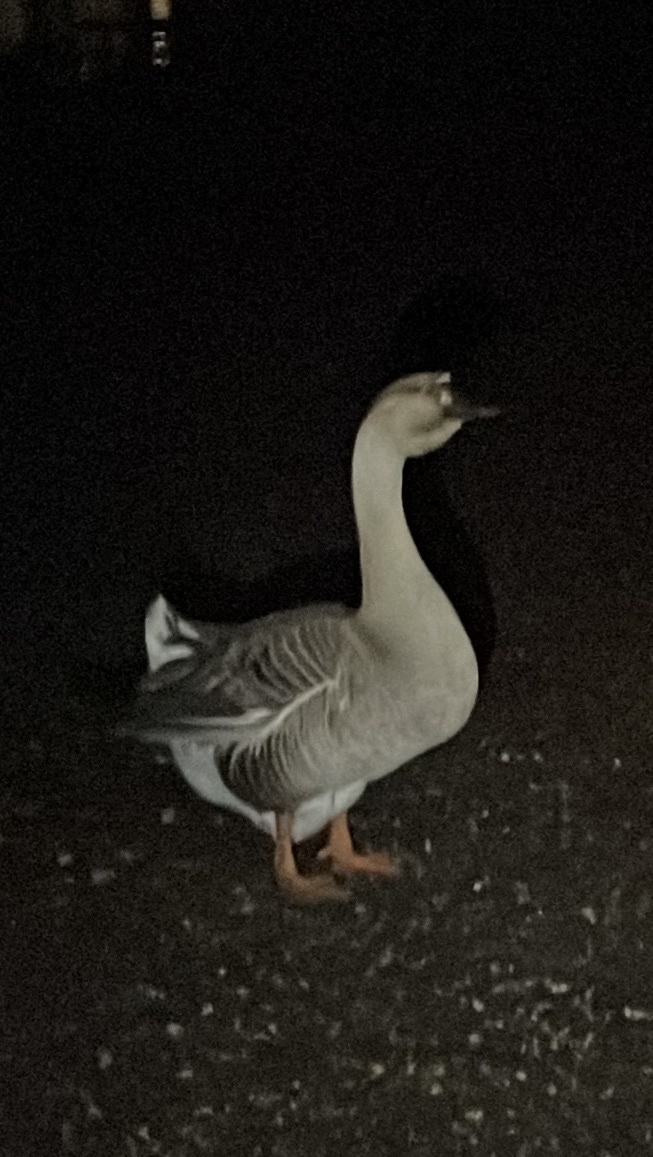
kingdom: Animalia
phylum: Chordata
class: Aves
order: Anseriformes
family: Anatidae
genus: Anser
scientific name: Anser cygnoides
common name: Swan goose
